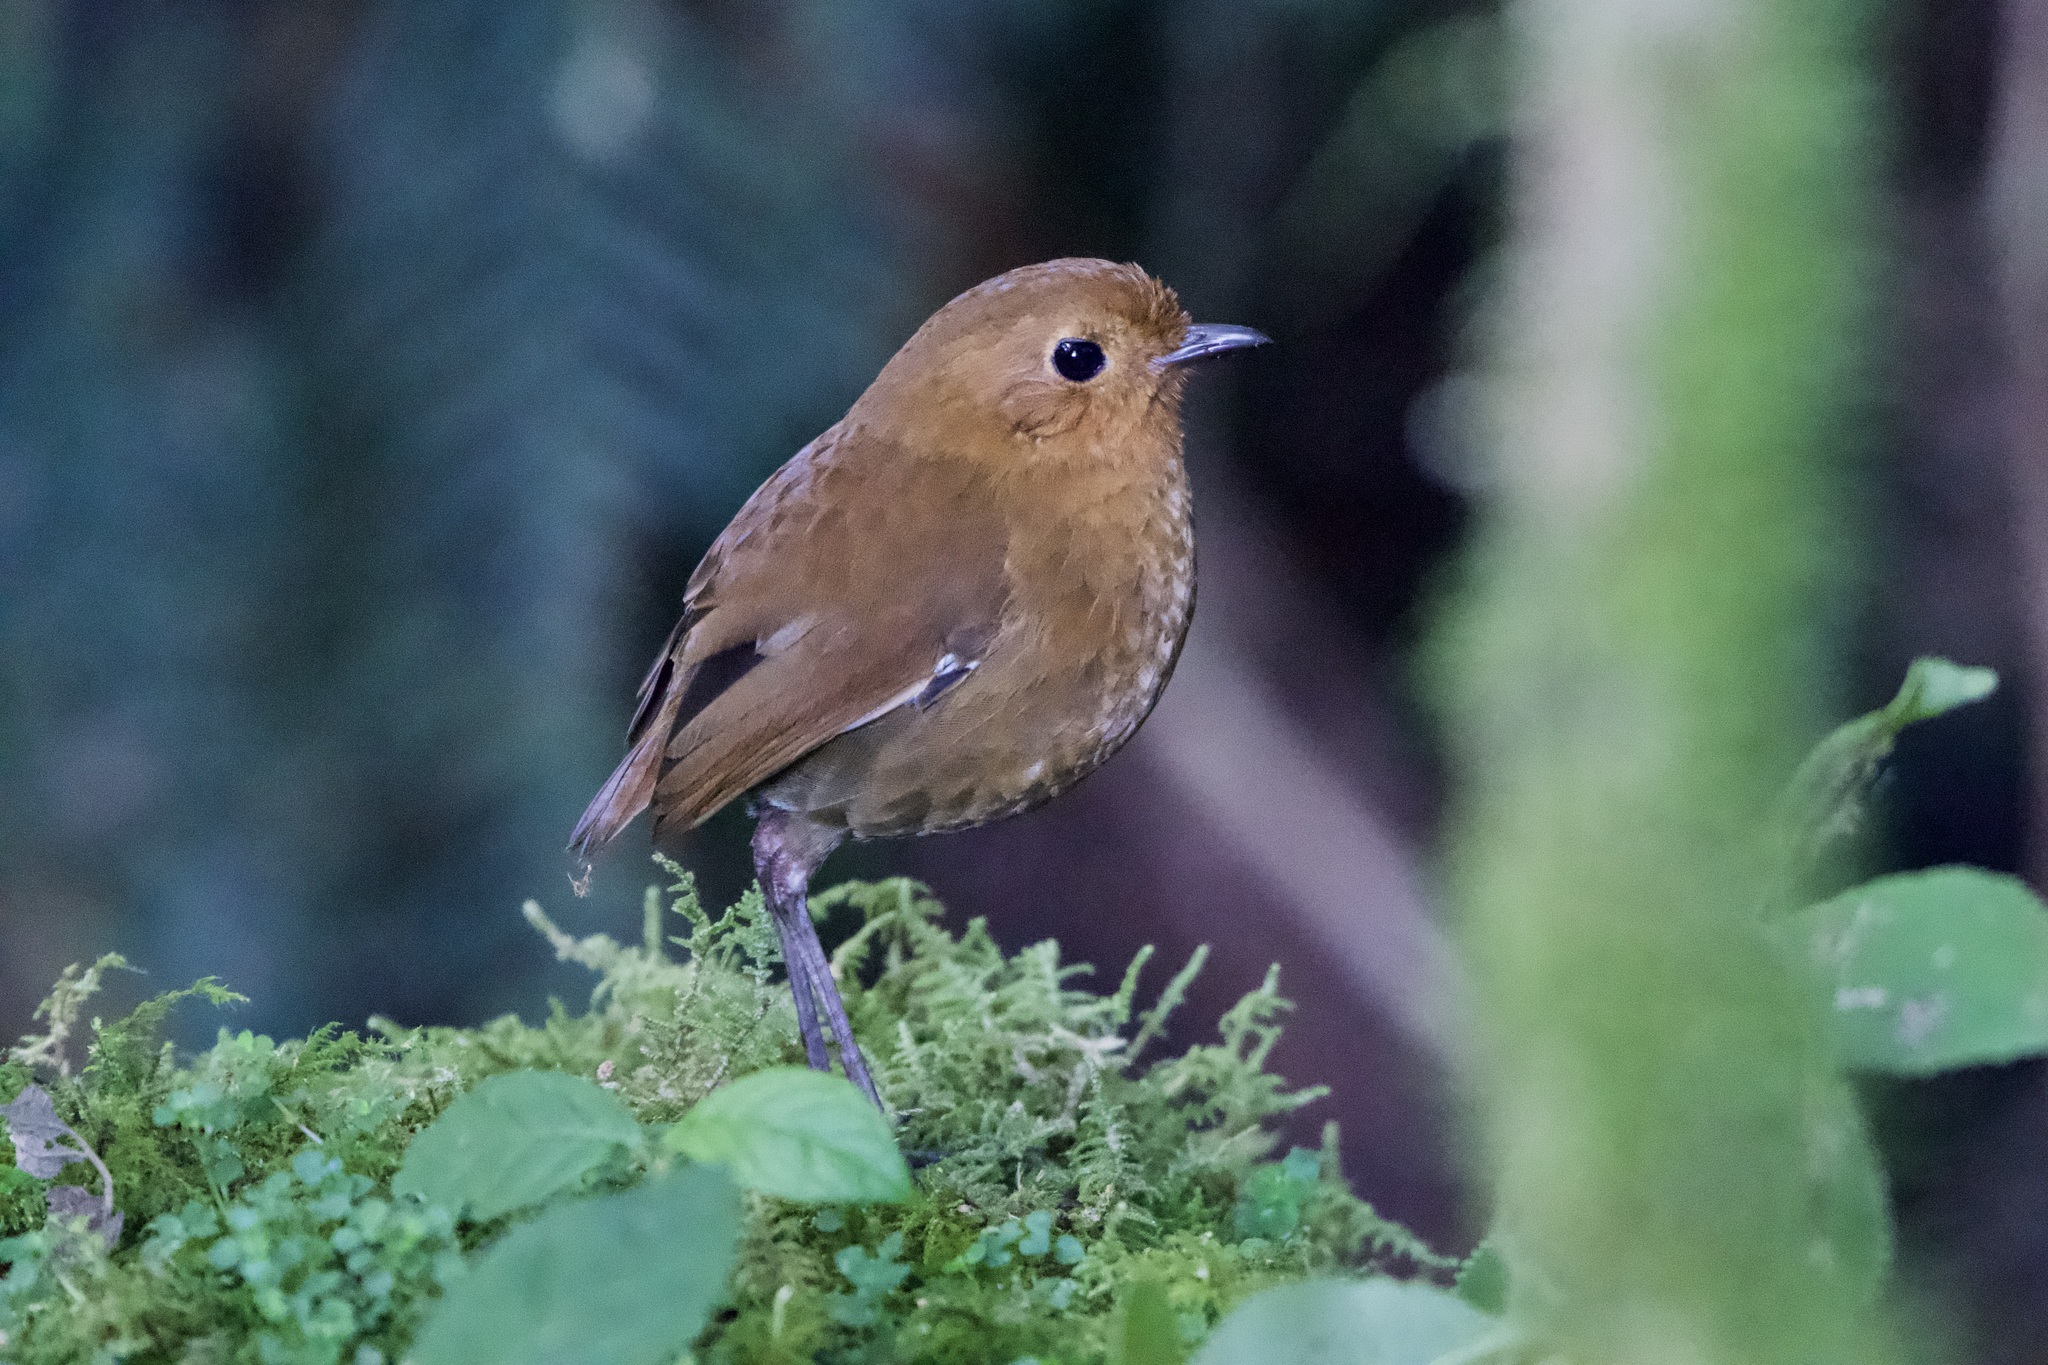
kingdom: Animalia
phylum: Chordata
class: Aves
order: Passeriformes
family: Grallariidae
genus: Grallaria
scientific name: Grallaria saturata
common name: Equatorial antpitta
